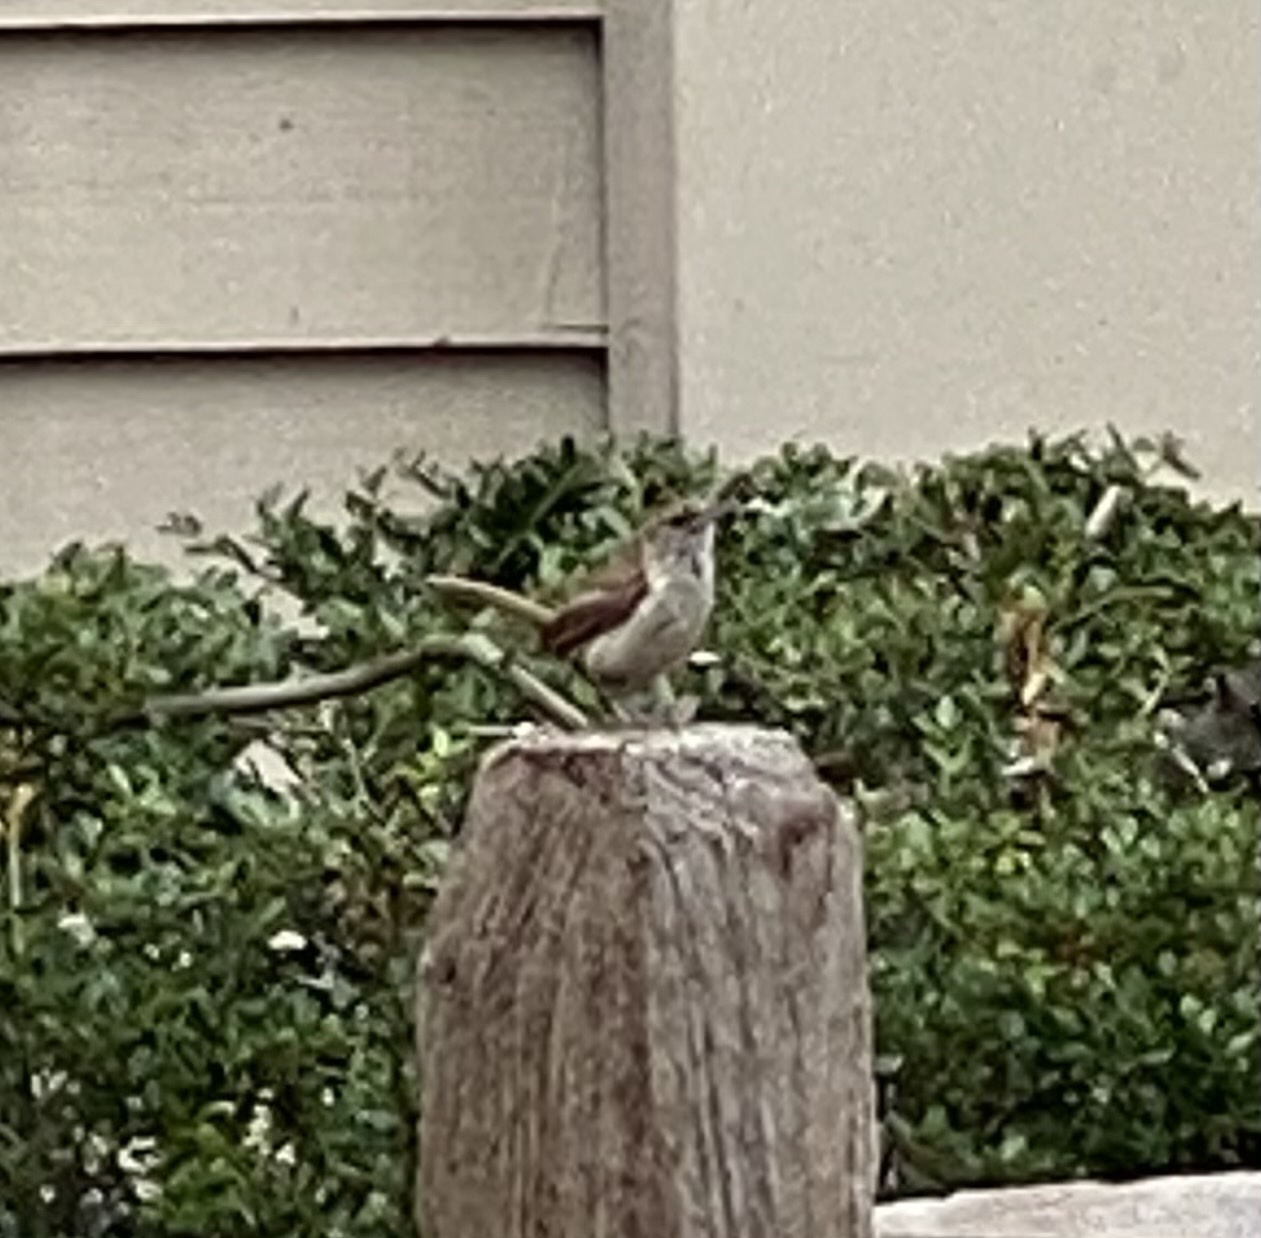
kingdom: Animalia
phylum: Chordata
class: Aves
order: Passeriformes
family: Troglodytidae
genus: Thryothorus
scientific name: Thryothorus ludovicianus
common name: Carolina wren
